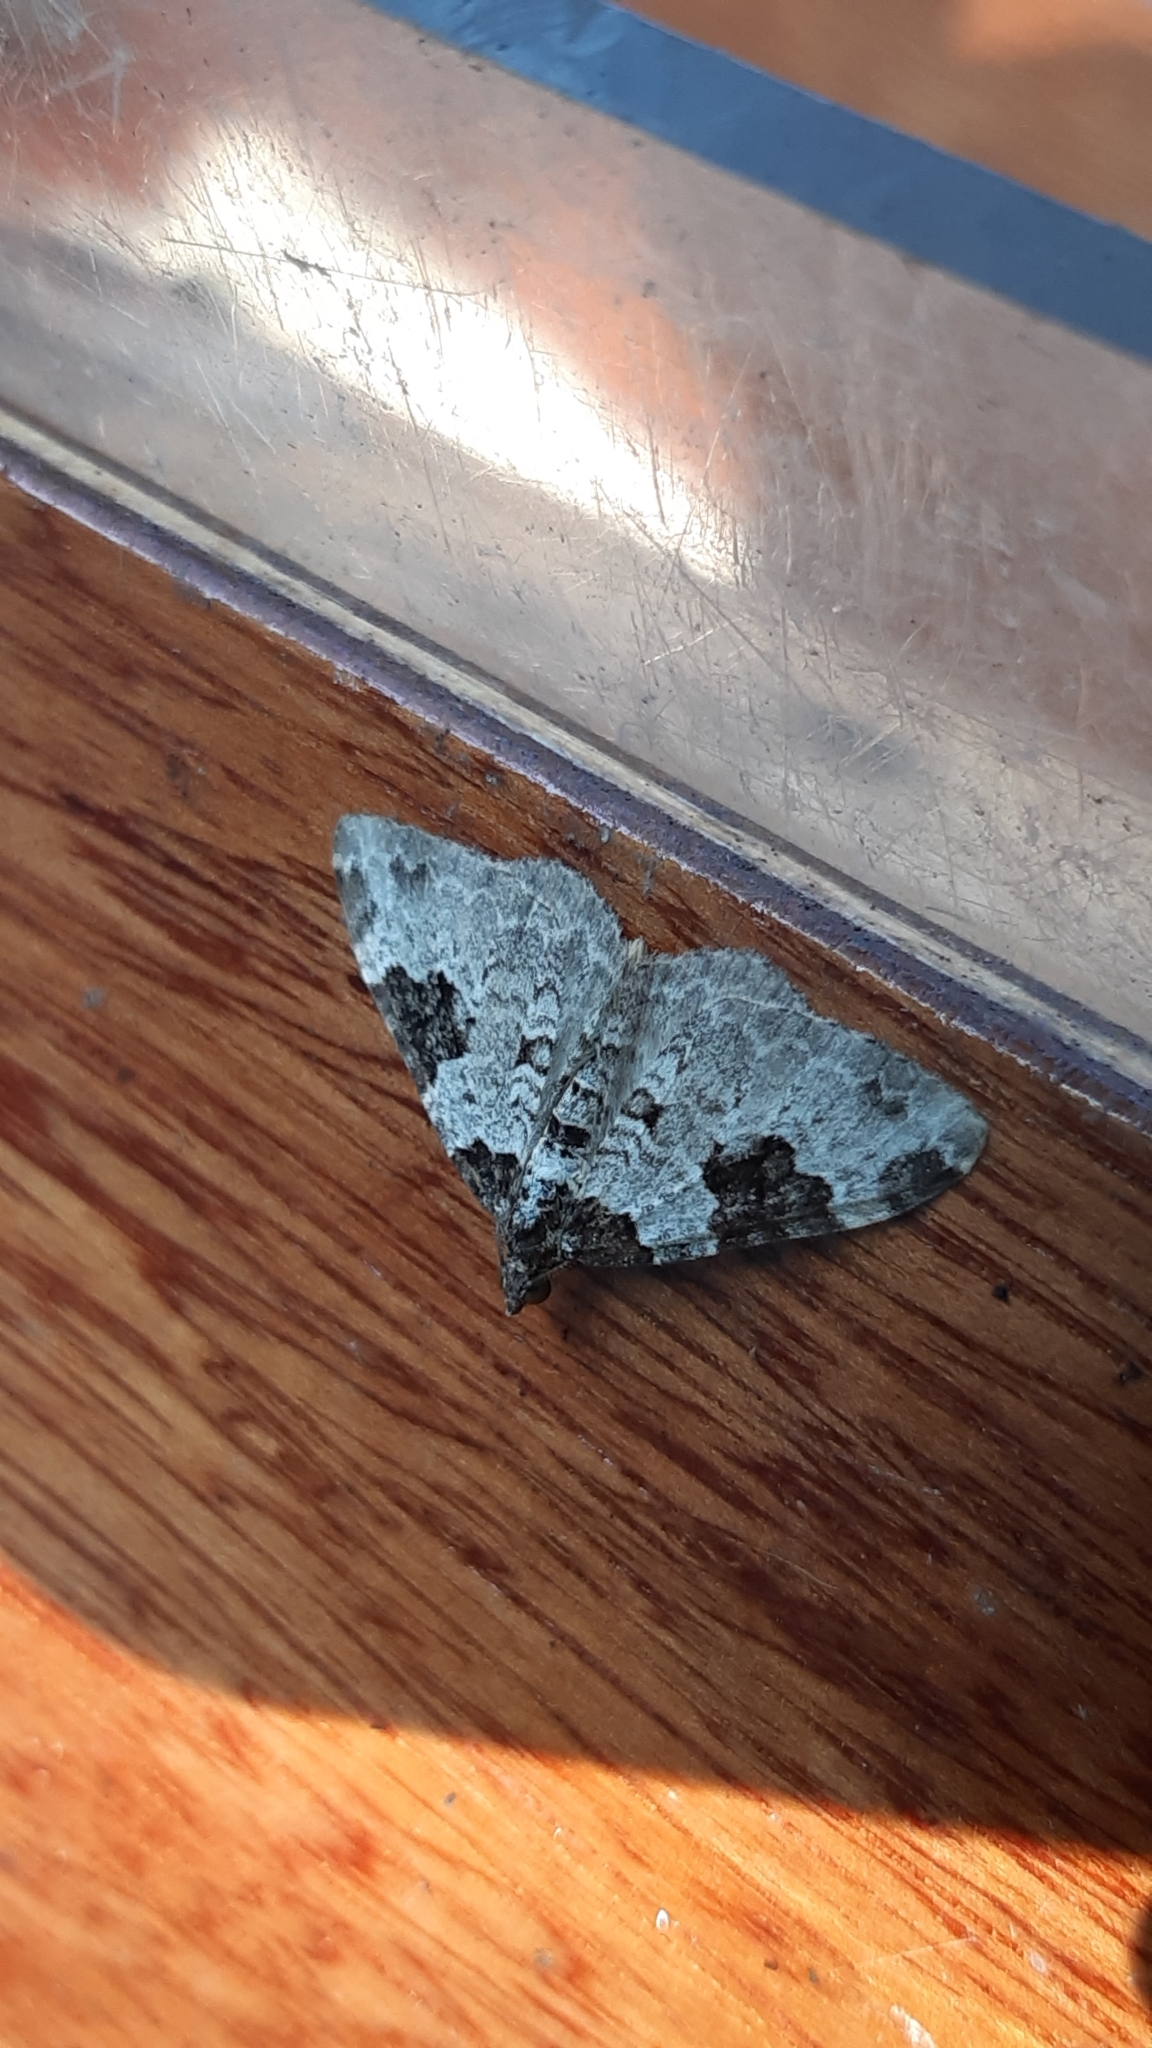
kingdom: Animalia
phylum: Arthropoda
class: Insecta
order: Lepidoptera
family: Geometridae
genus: Xanthorhoe
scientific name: Xanthorhoe fluctuata
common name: Garden carpet
